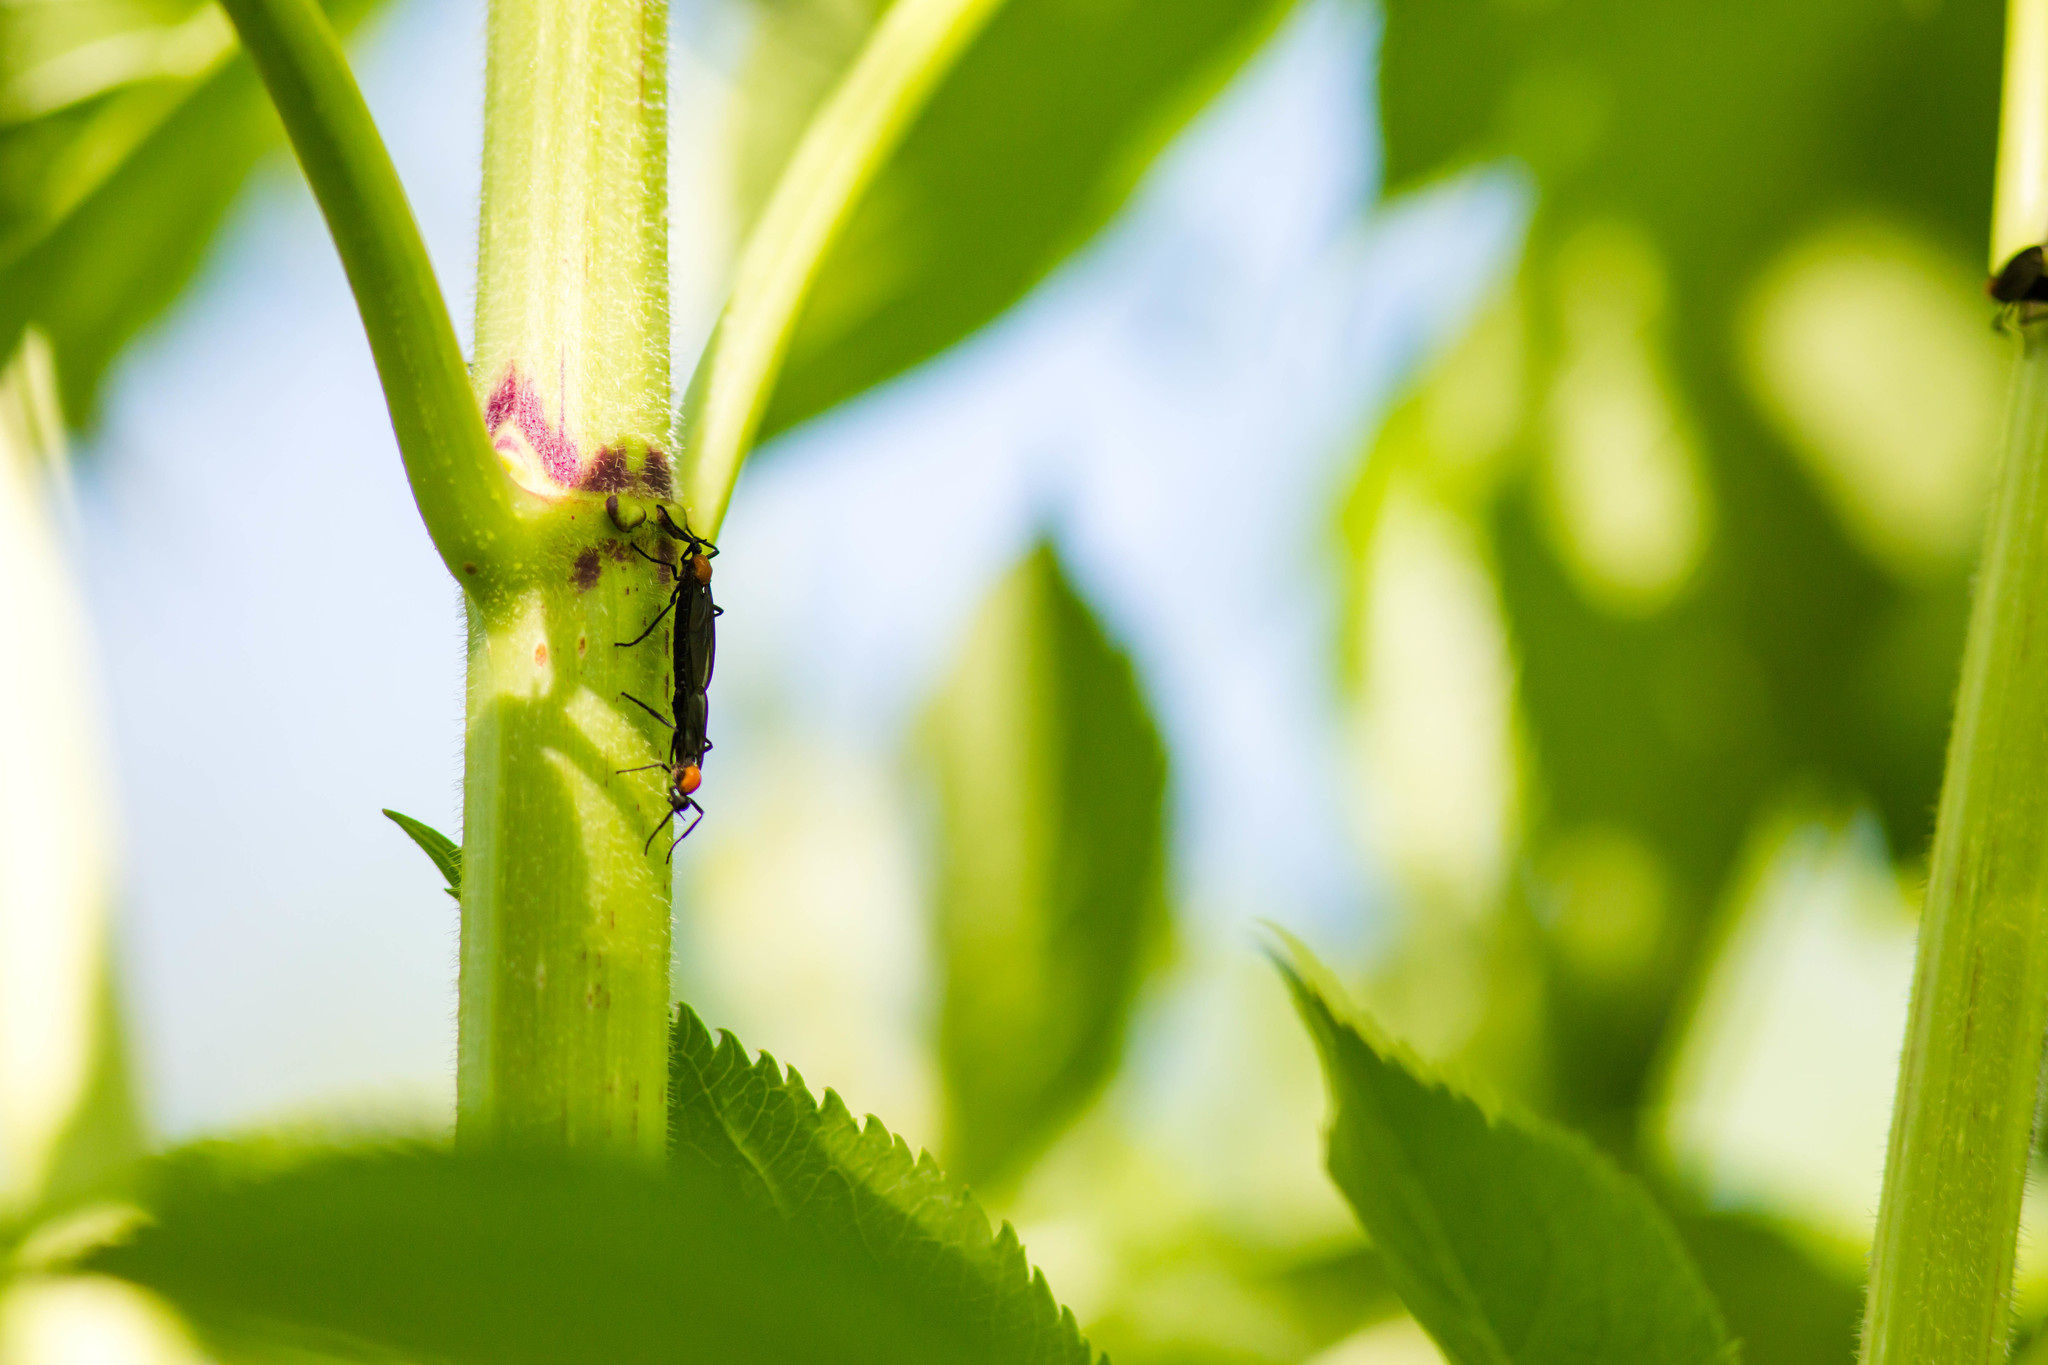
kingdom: Animalia
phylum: Arthropoda
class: Insecta
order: Diptera
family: Bibionidae
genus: Plecia
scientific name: Plecia nearctica
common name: March fly
